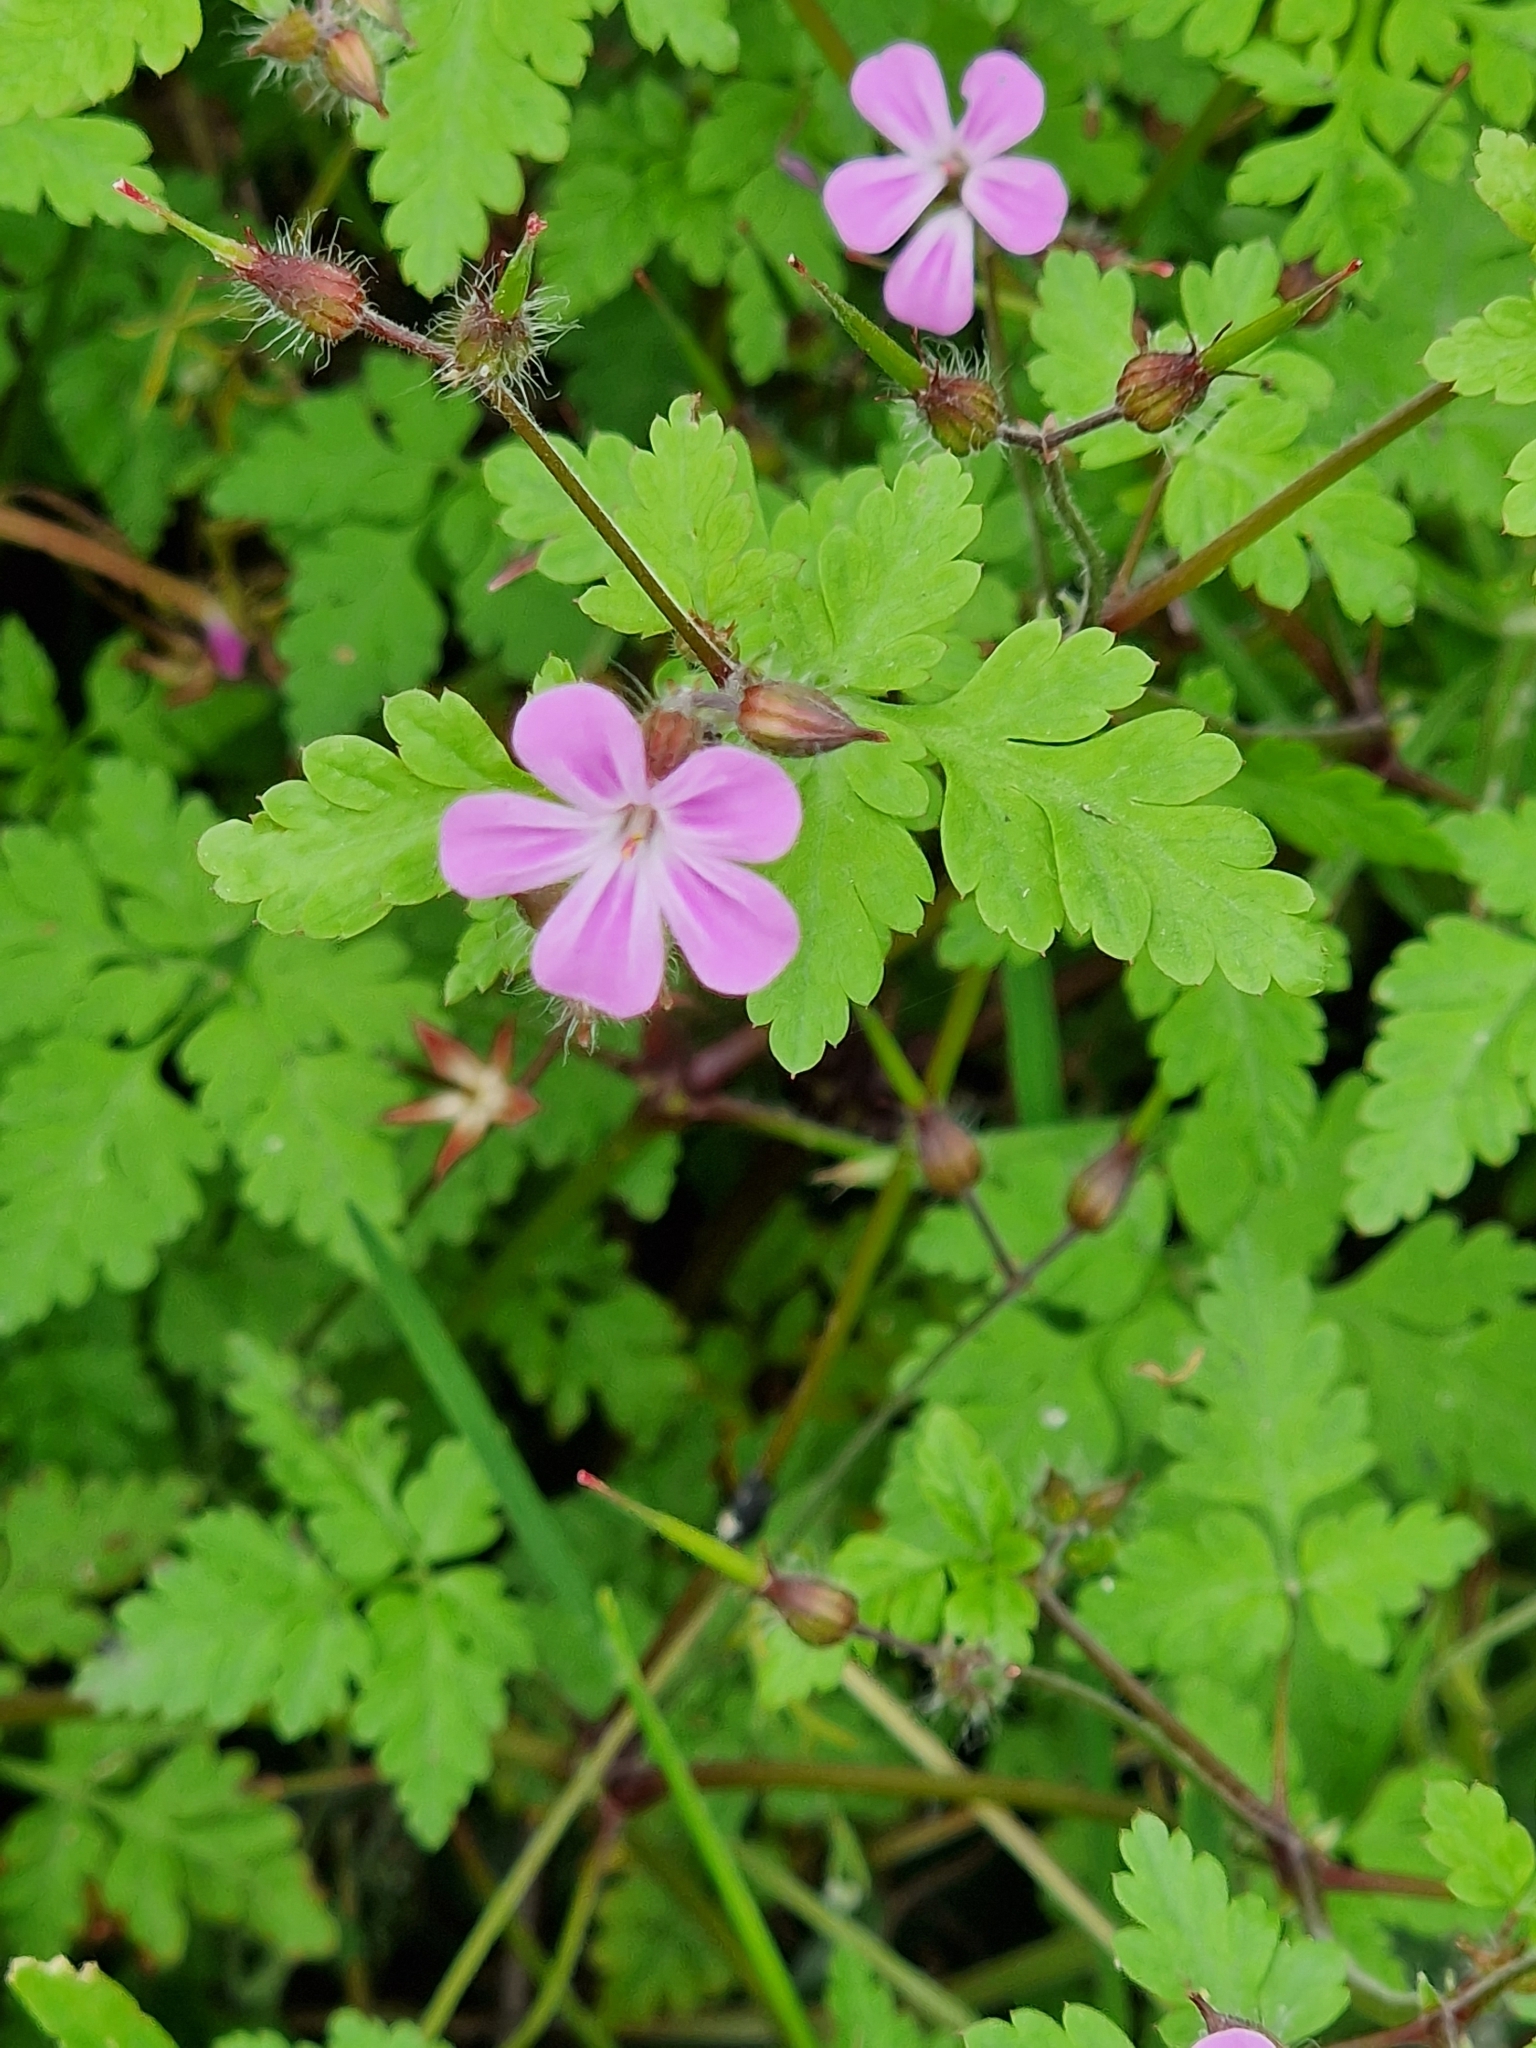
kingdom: Plantae
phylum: Tracheophyta
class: Magnoliopsida
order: Geraniales
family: Geraniaceae
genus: Geranium
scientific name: Geranium robertianum
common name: Herb-robert
